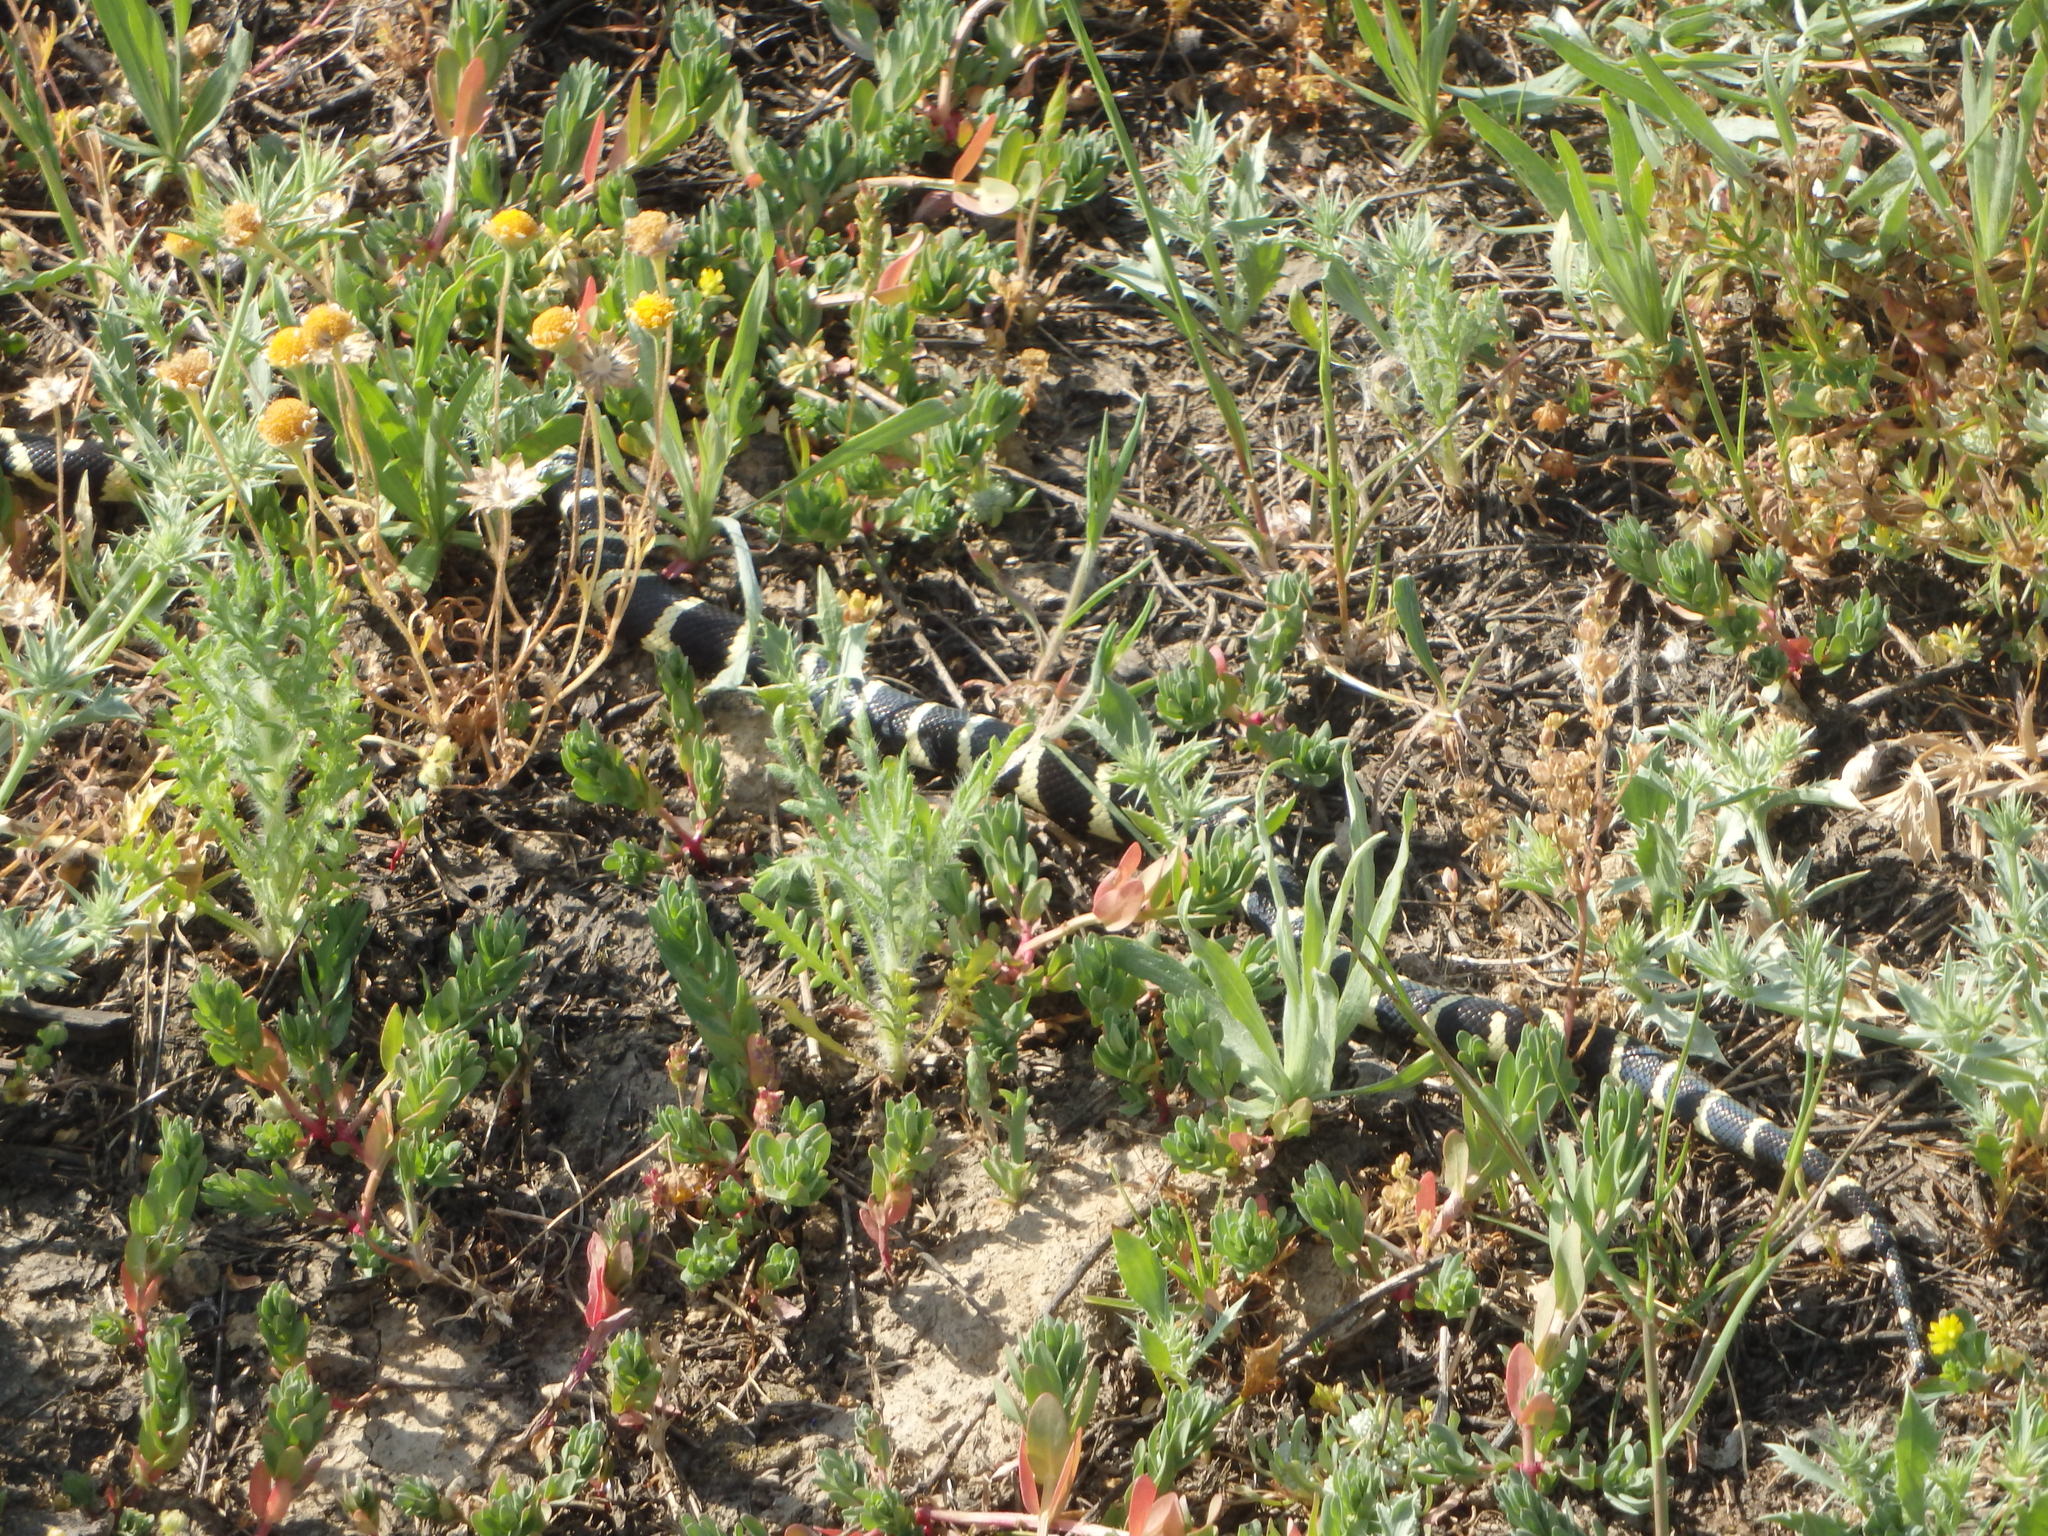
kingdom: Animalia
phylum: Chordata
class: Squamata
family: Colubridae
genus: Lampropeltis
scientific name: Lampropeltis californiae
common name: California kingsnake
